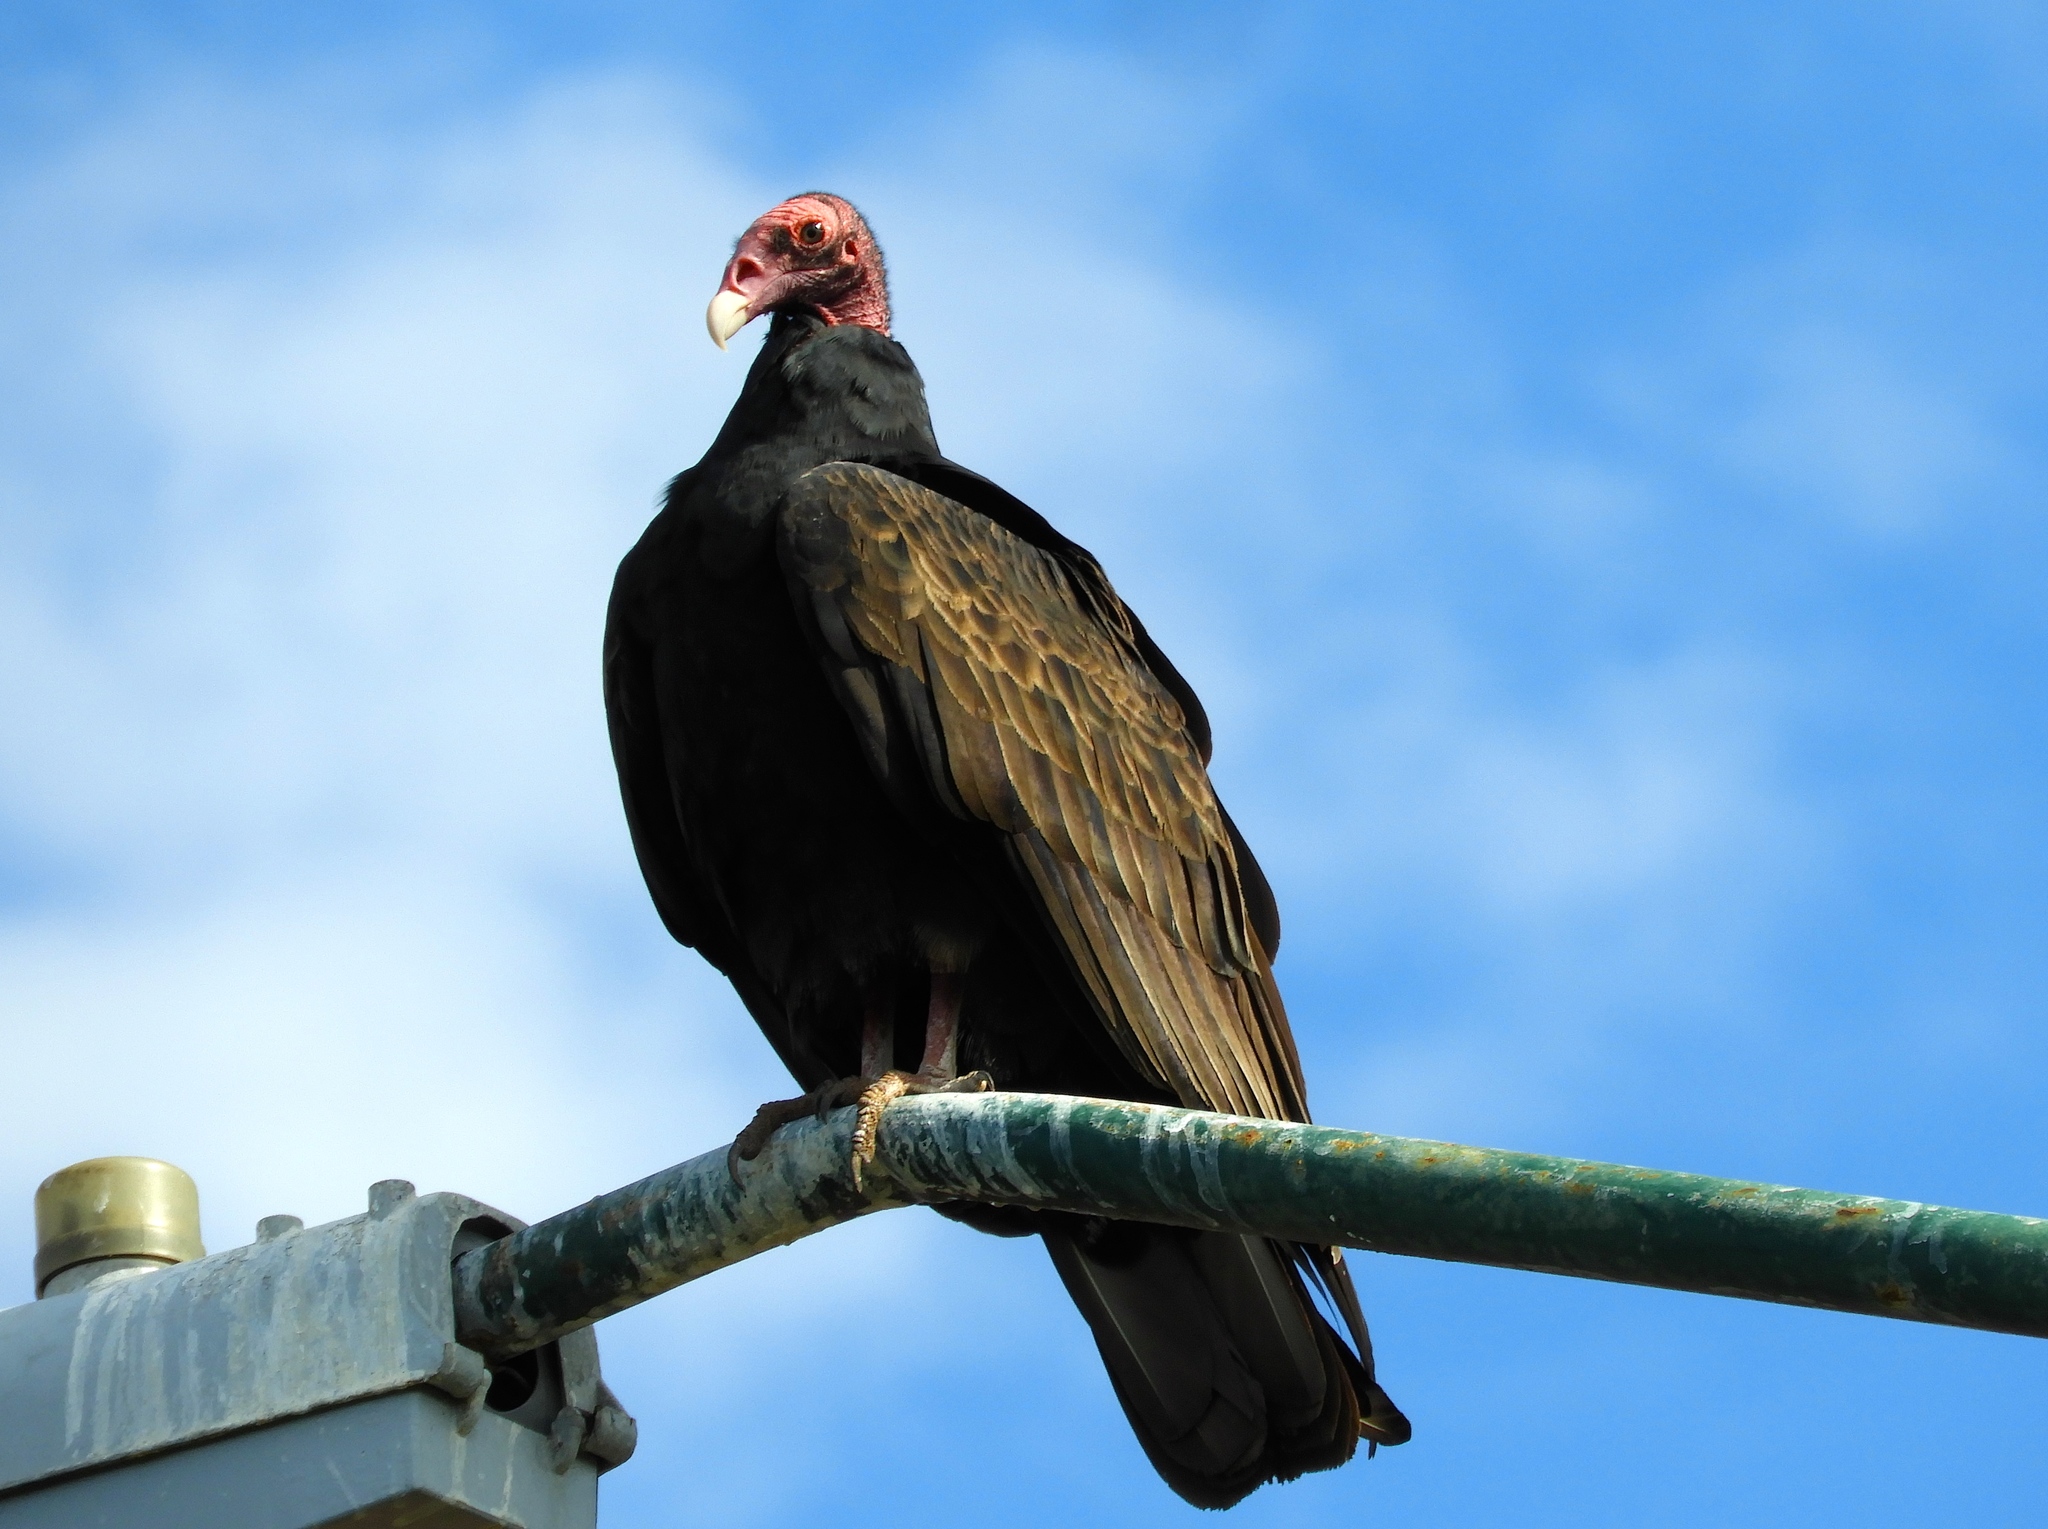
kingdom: Animalia
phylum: Chordata
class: Aves
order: Accipitriformes
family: Cathartidae
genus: Cathartes
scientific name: Cathartes aura
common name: Turkey vulture
